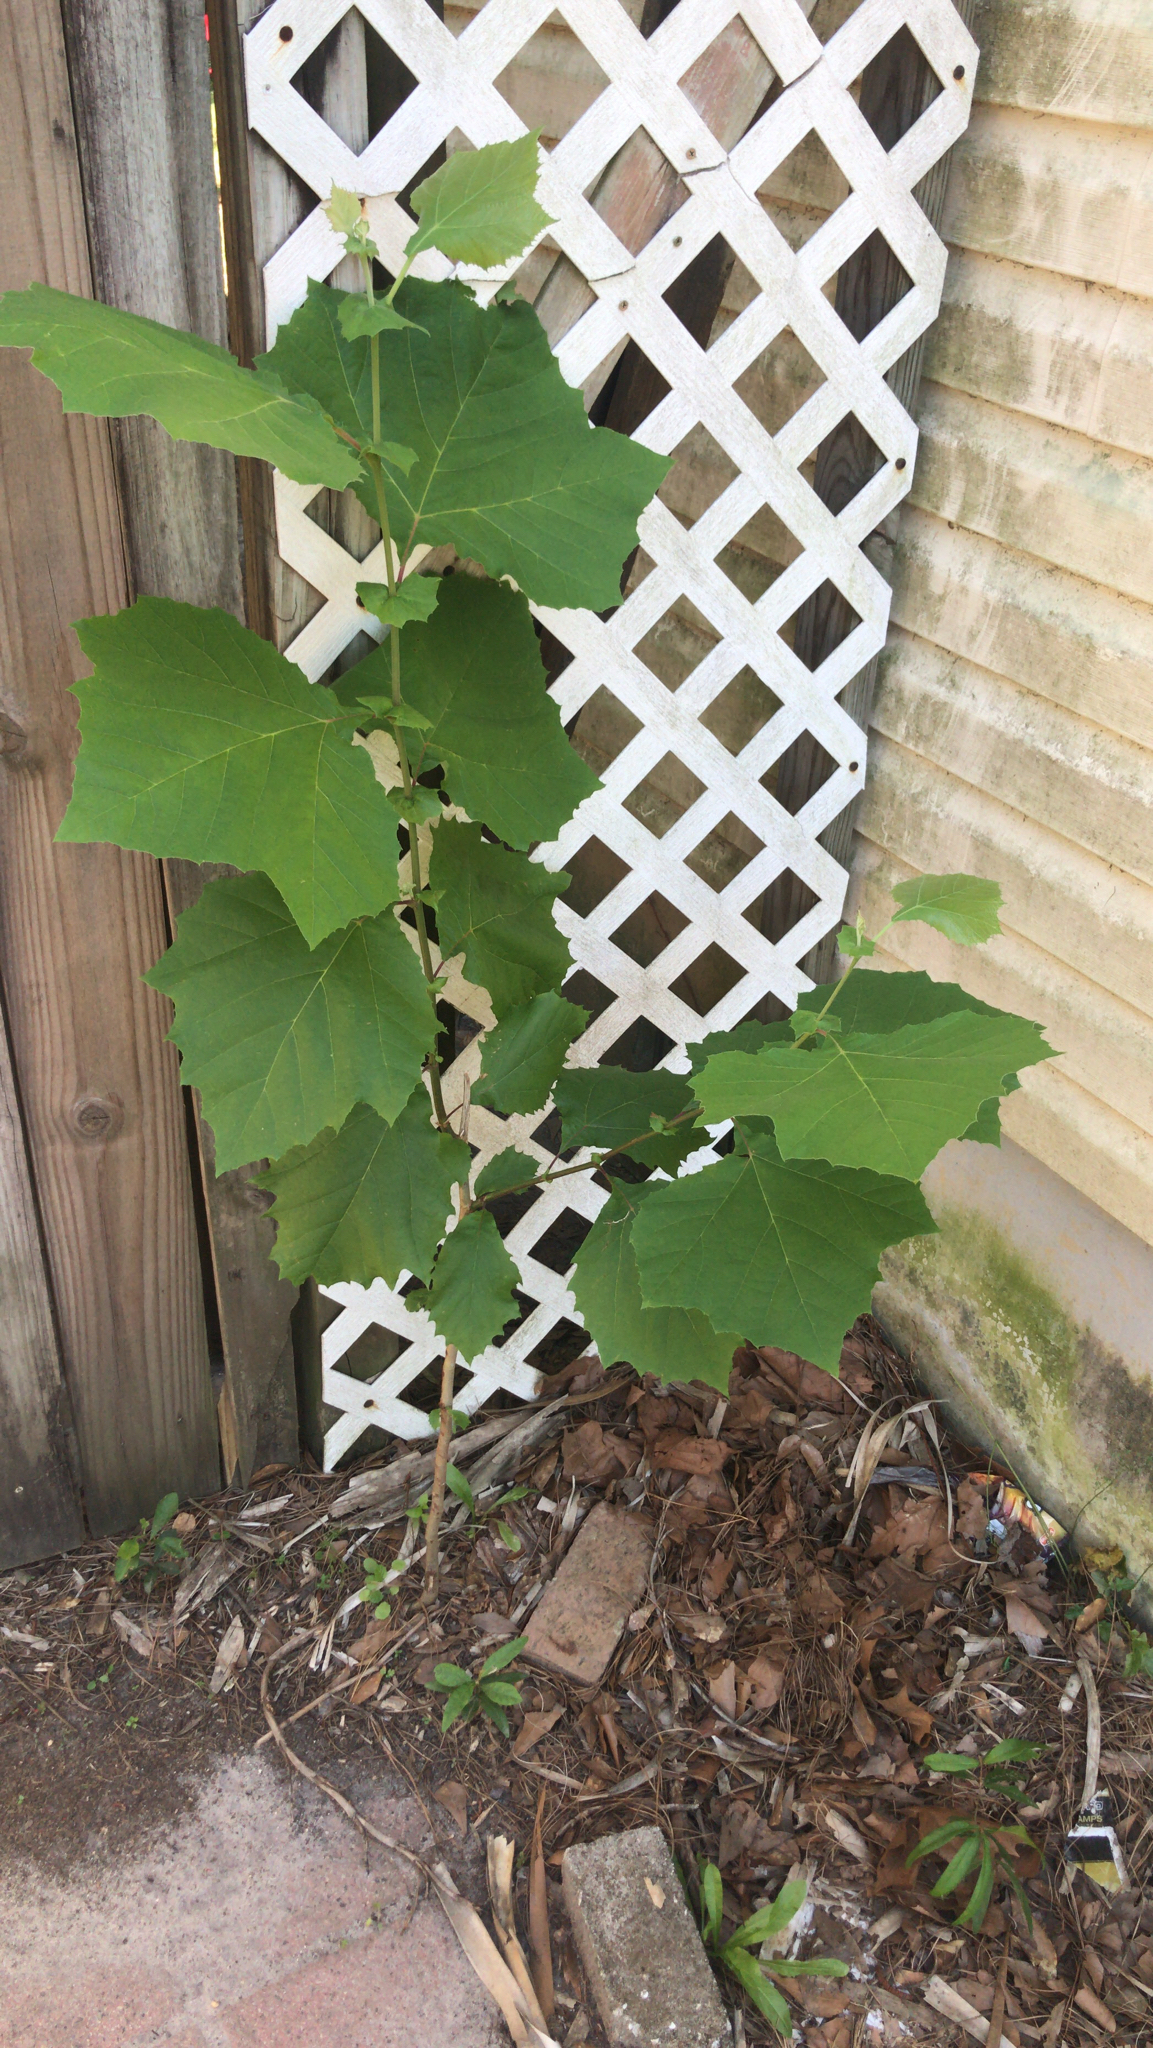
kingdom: Plantae
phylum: Tracheophyta
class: Magnoliopsida
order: Proteales
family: Platanaceae
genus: Platanus
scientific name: Platanus occidentalis
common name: American sycamore
